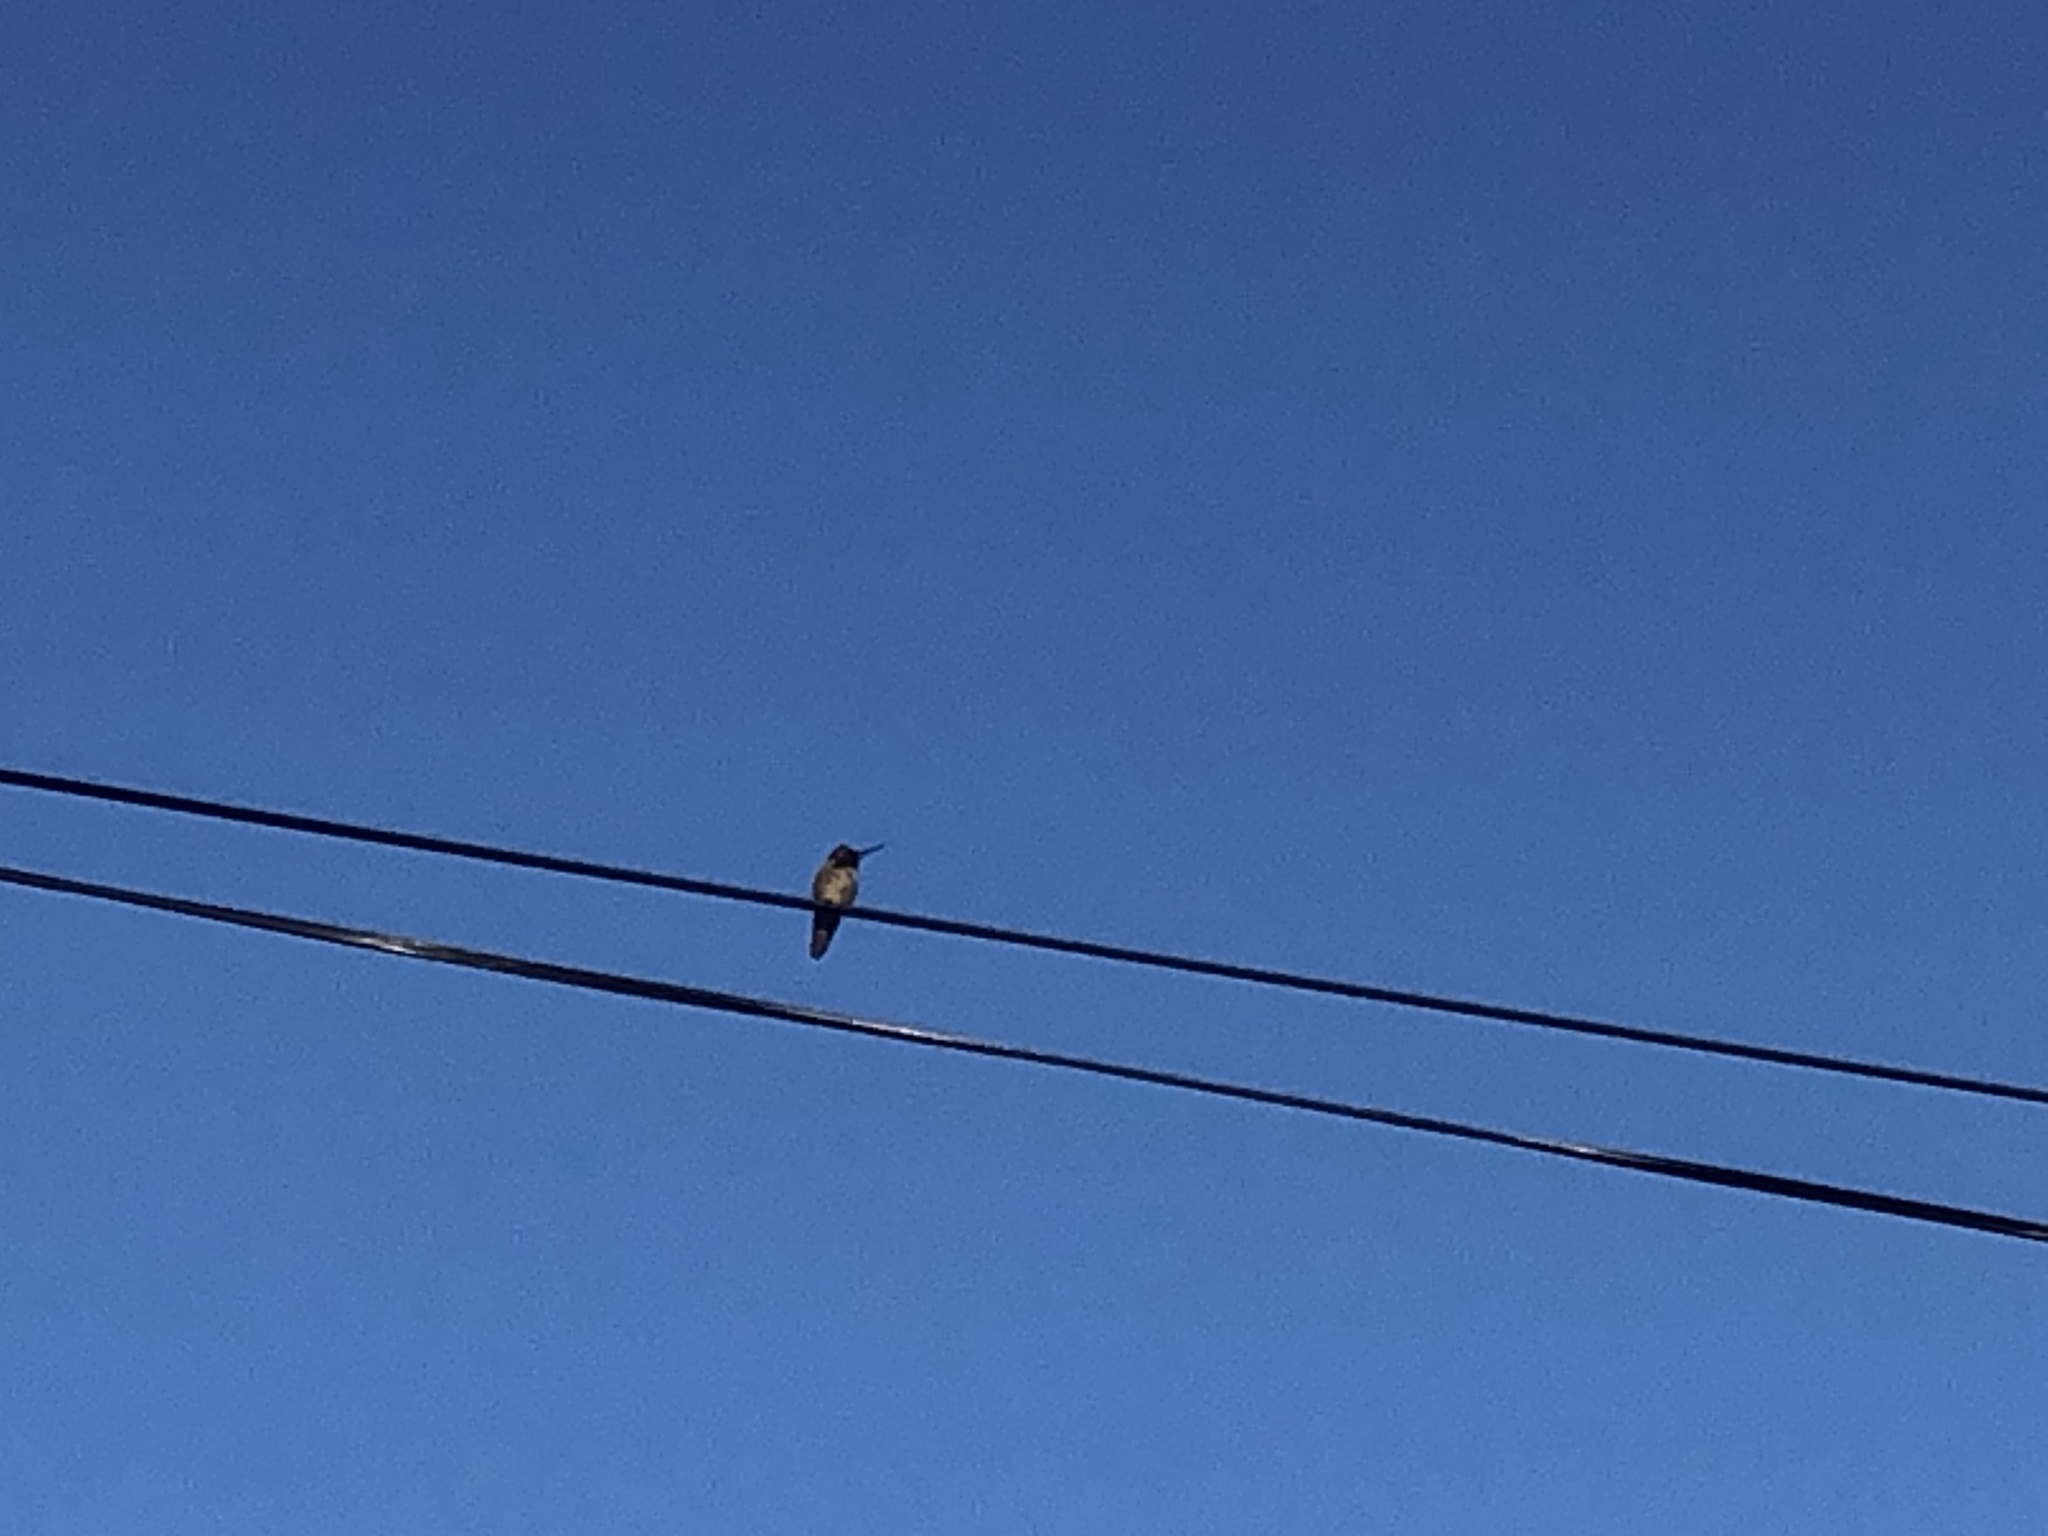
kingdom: Animalia
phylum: Chordata
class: Aves
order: Apodiformes
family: Trochilidae
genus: Calypte
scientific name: Calypte anna
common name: Anna's hummingbird
